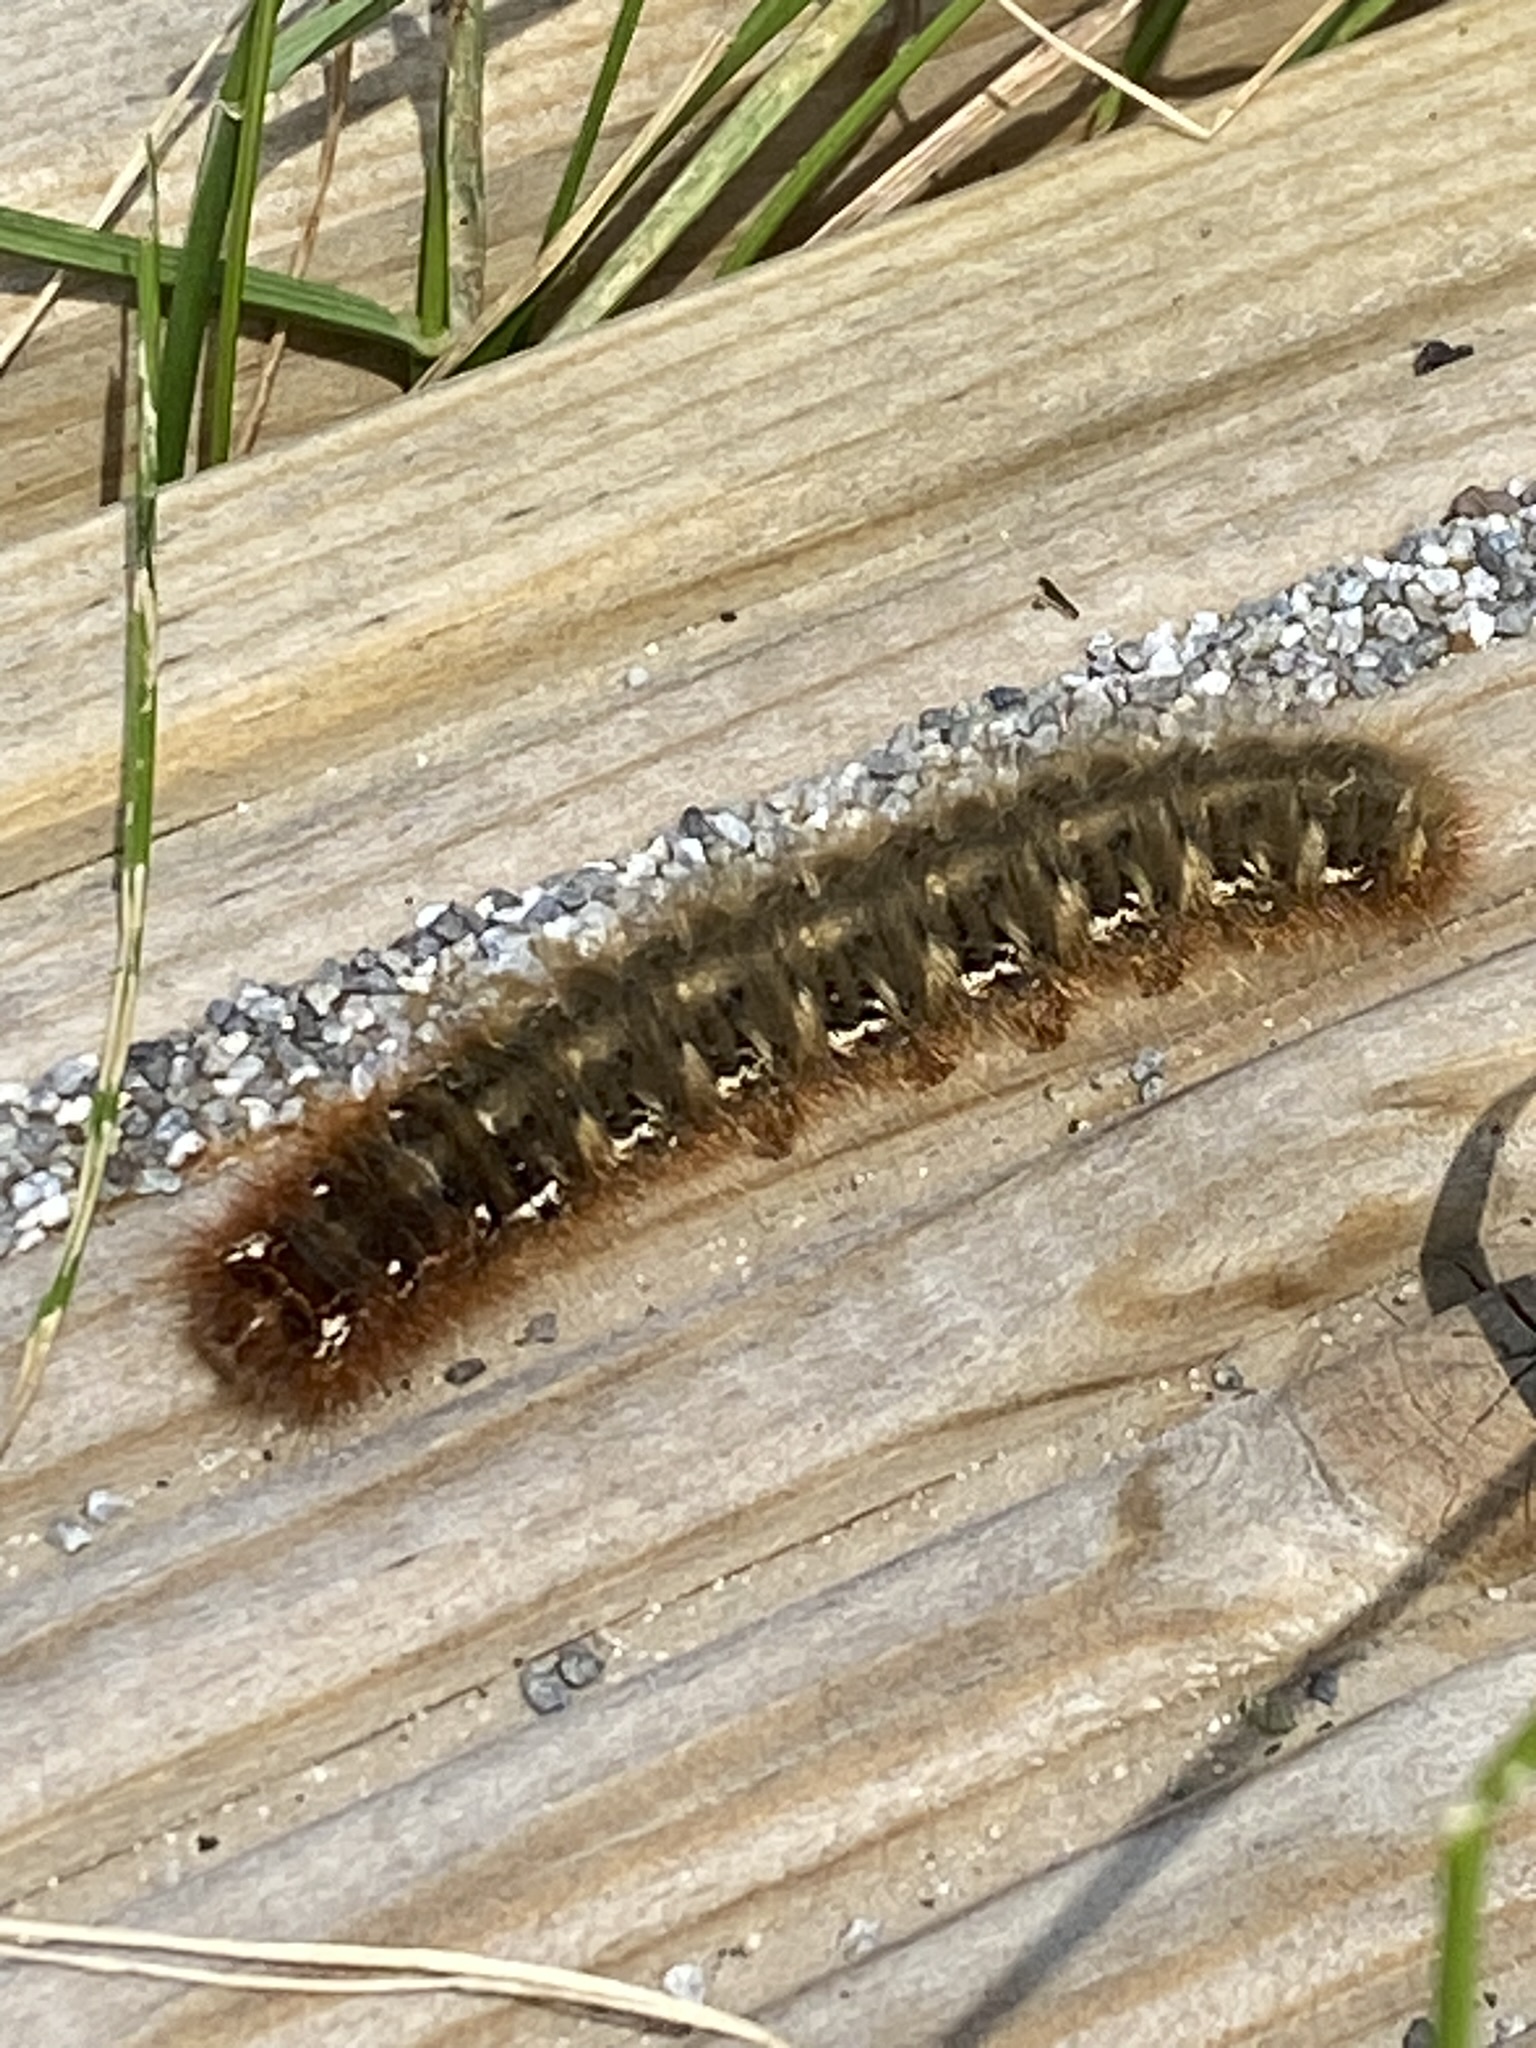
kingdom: Animalia
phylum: Arthropoda
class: Insecta
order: Lepidoptera
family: Lasiocampidae
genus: Lasiocampa
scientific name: Lasiocampa quercus
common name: Oak eggar
